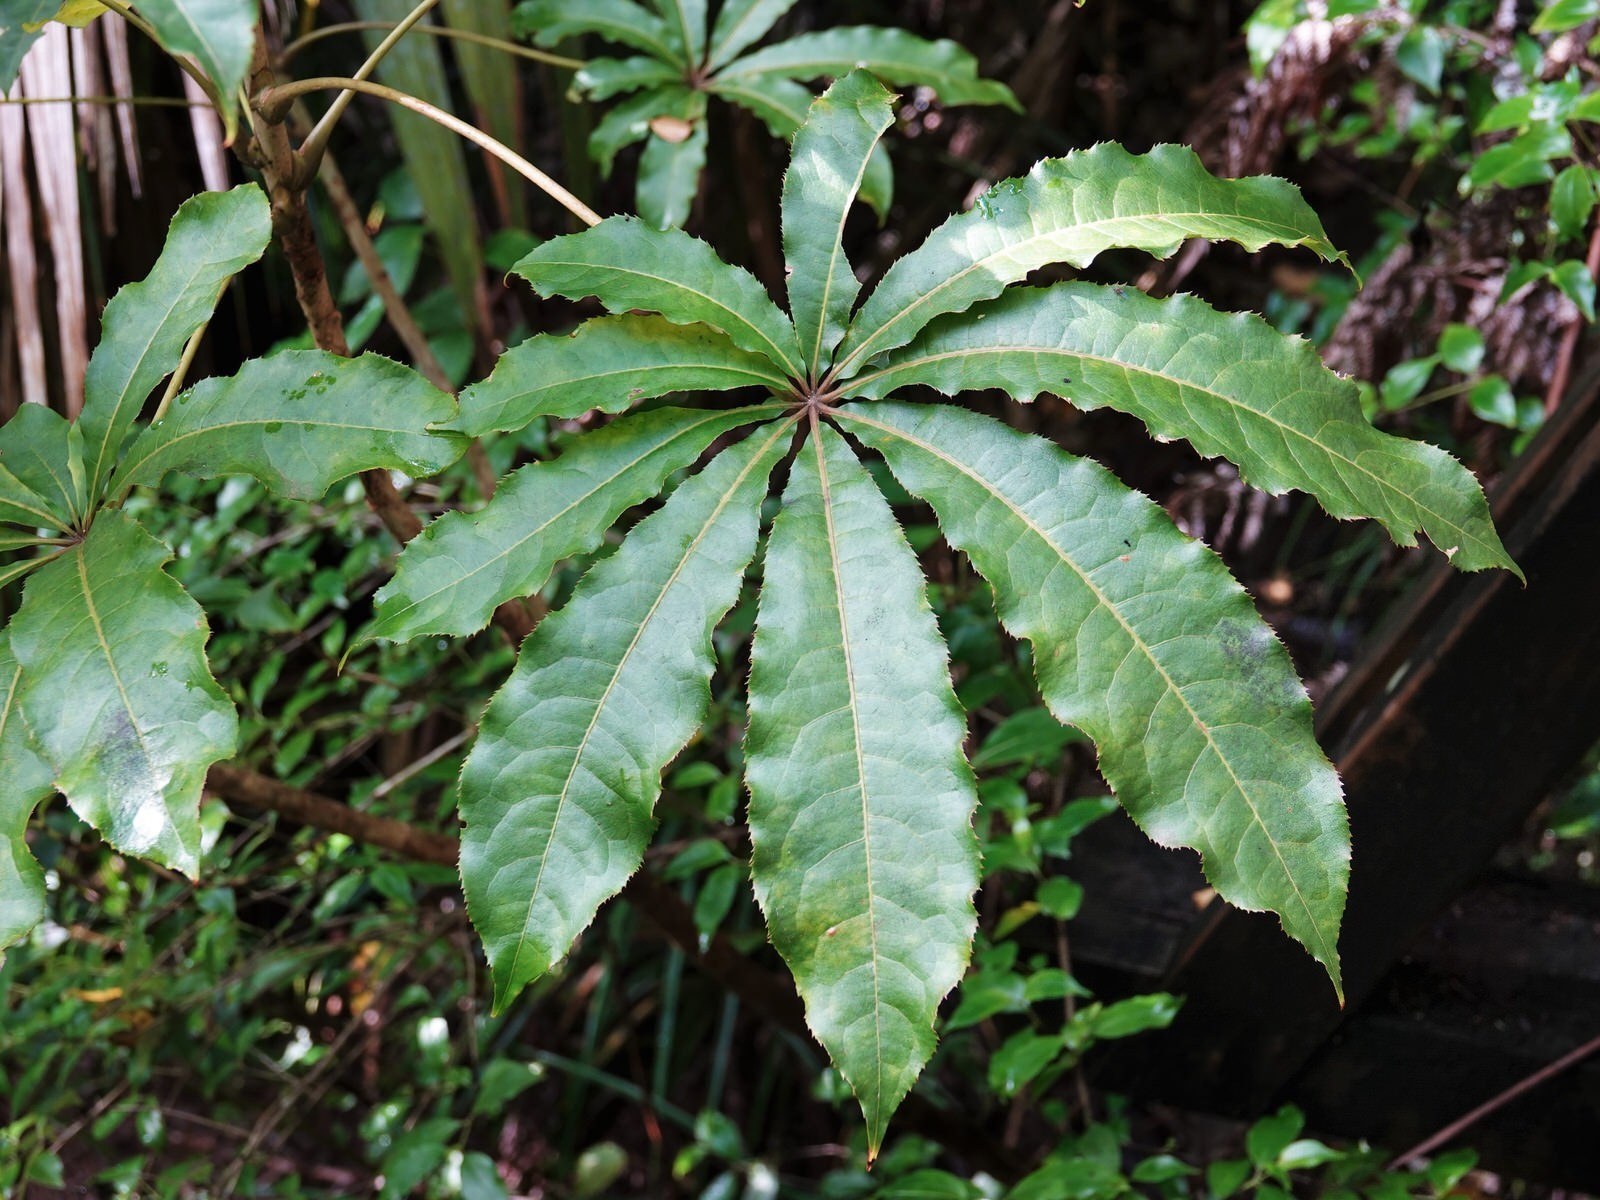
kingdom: Plantae
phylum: Tracheophyta
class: Magnoliopsida
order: Apiales
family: Araliaceae
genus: Schefflera
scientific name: Schefflera digitata
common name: Pate
